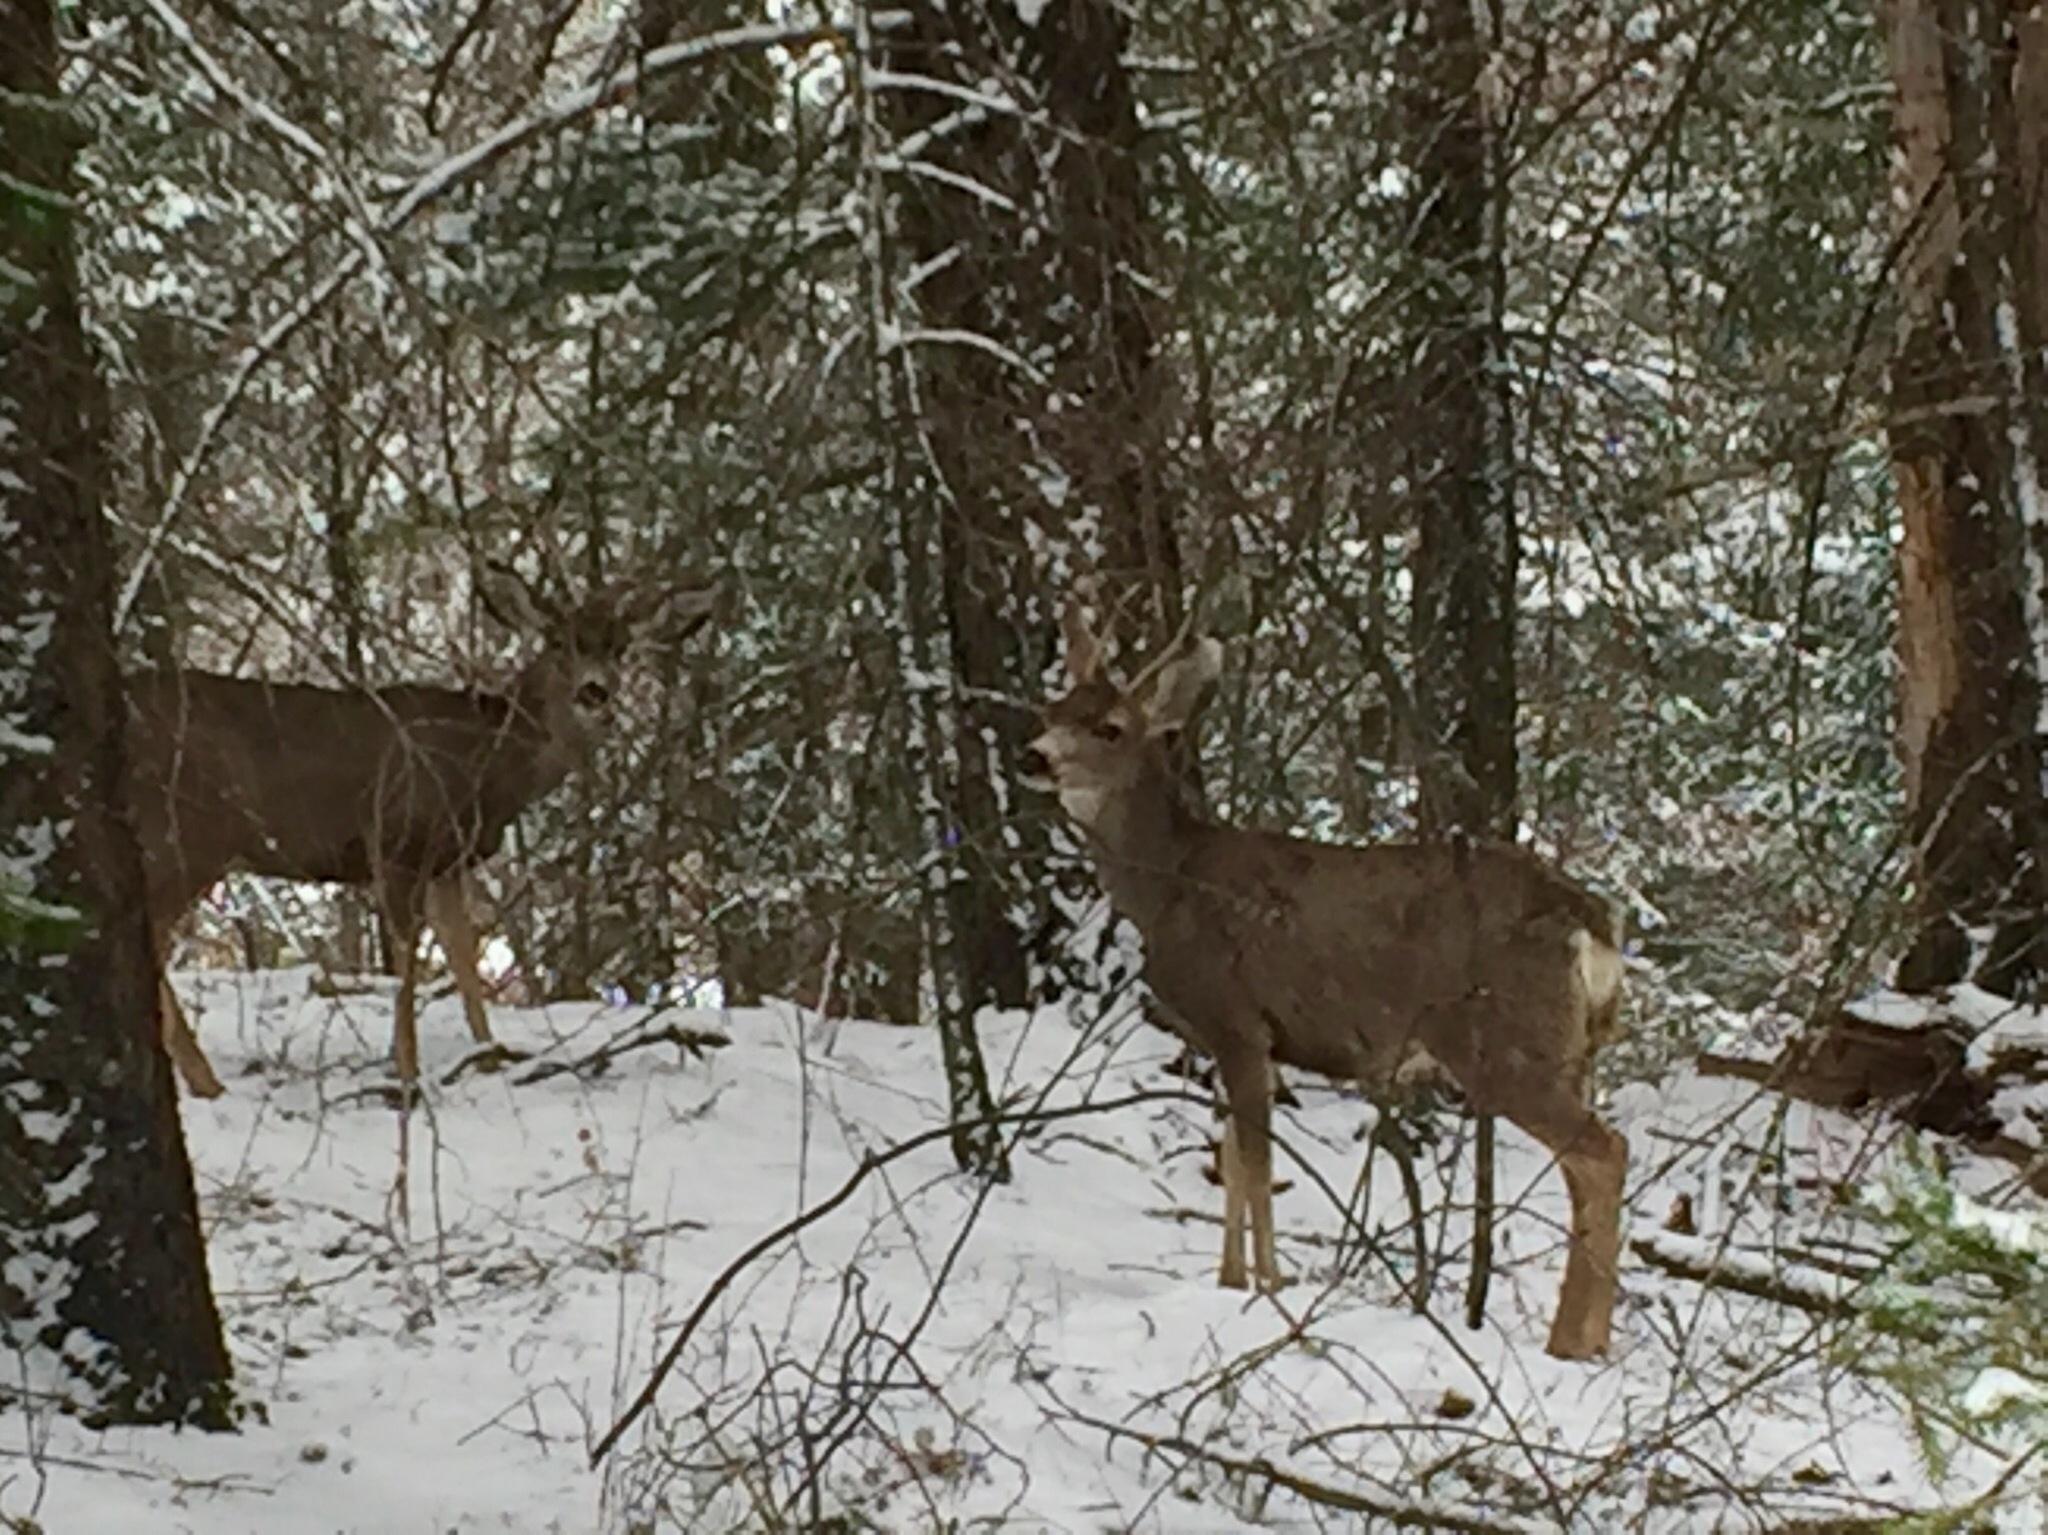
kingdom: Animalia
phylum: Chordata
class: Mammalia
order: Artiodactyla
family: Cervidae
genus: Odocoileus
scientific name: Odocoileus hemionus
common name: Mule deer
